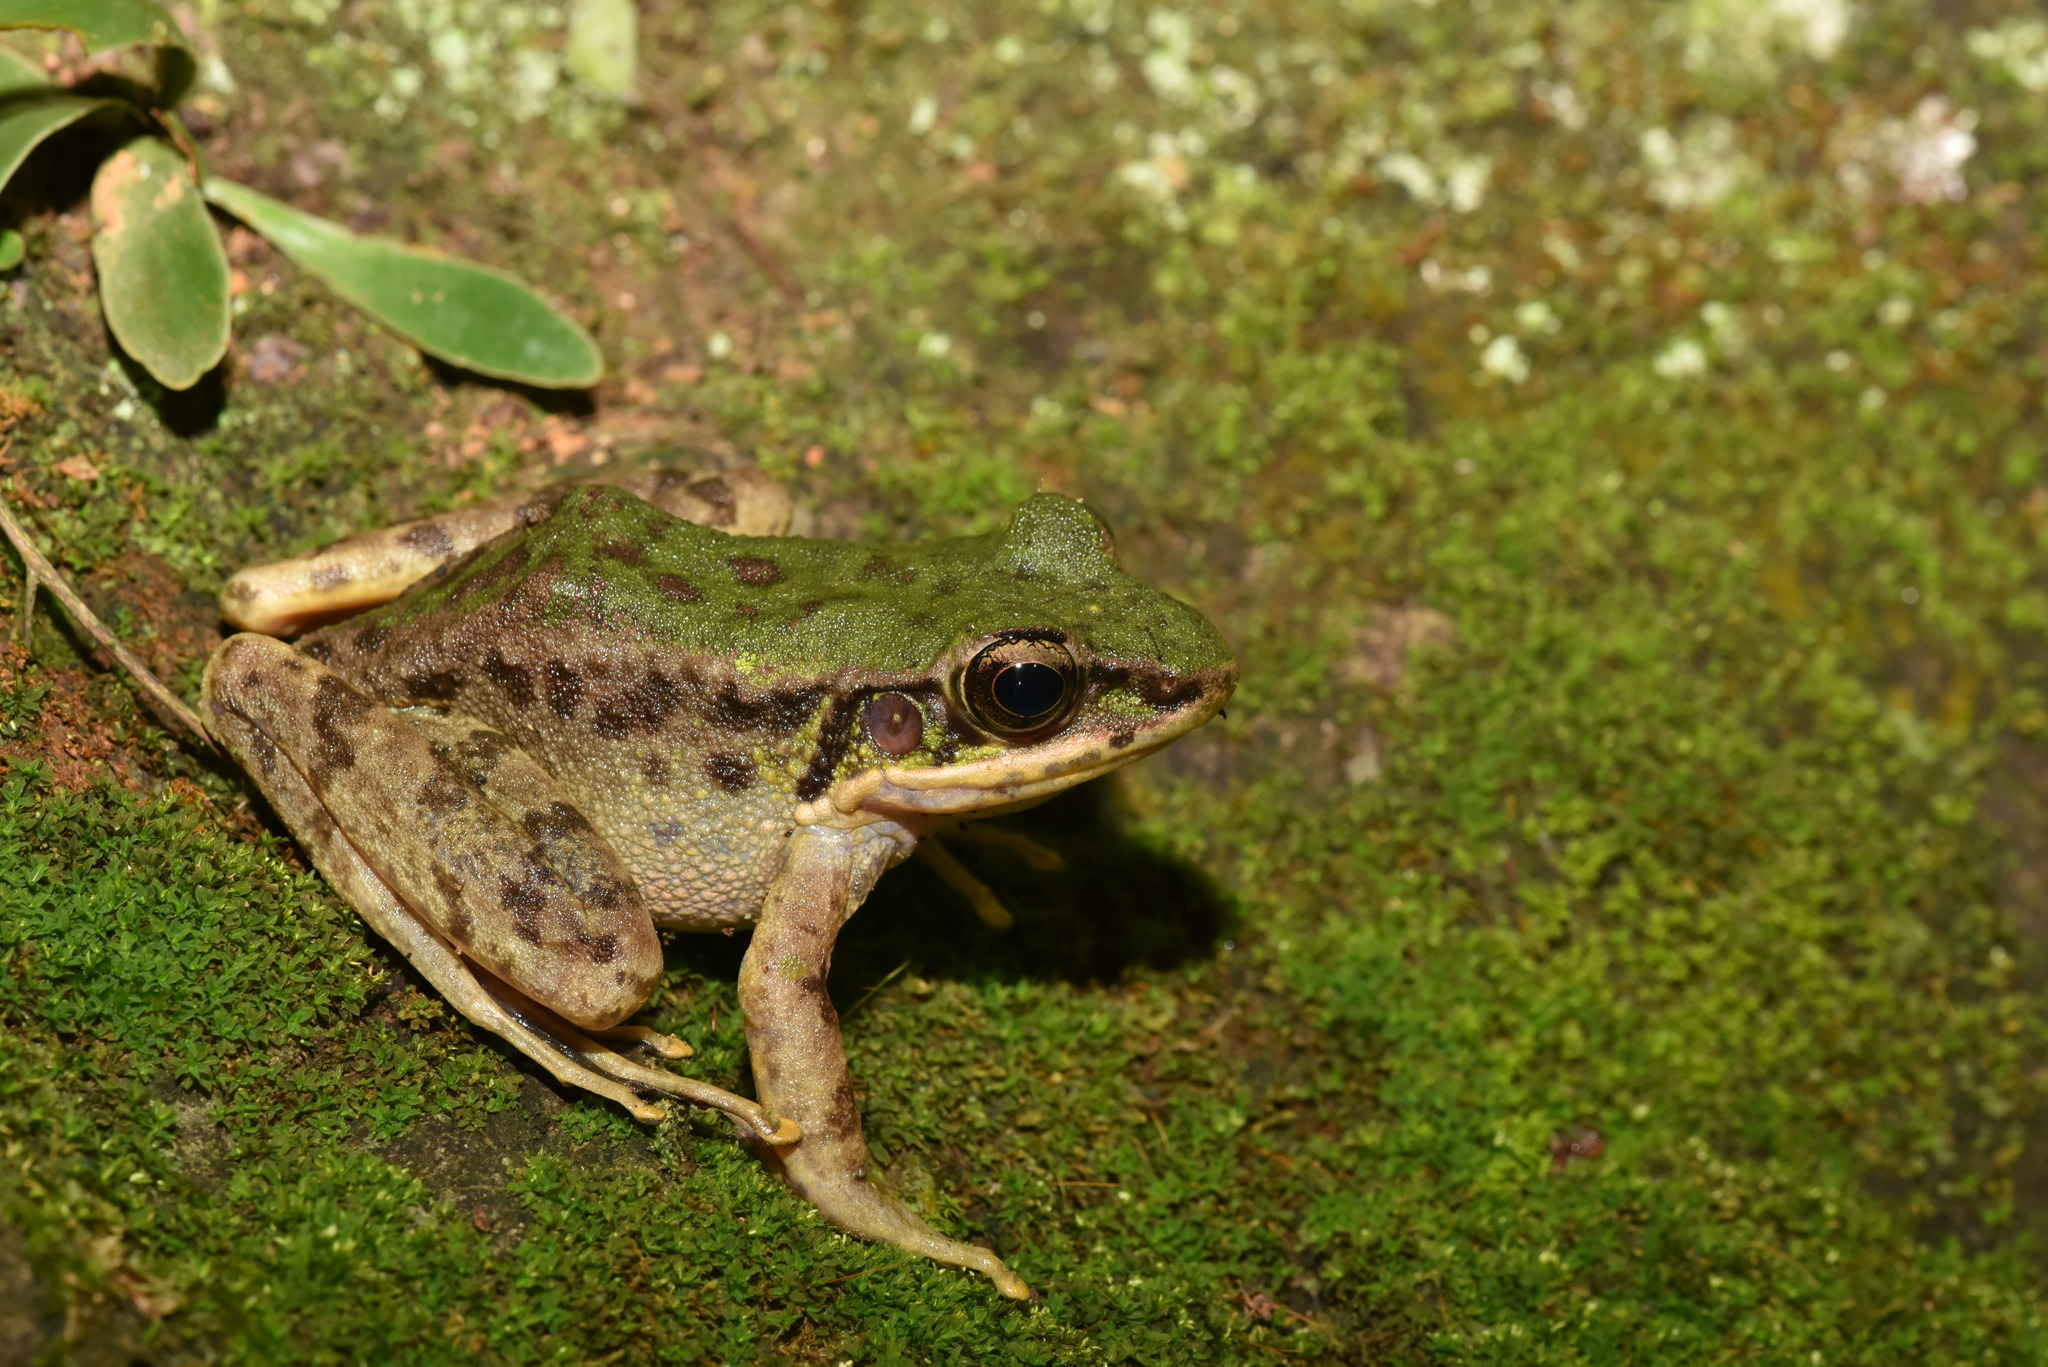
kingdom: Animalia
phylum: Chordata
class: Amphibia
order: Anura
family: Ranidae
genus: Odorrana
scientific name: Odorrana swinhoana
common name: Bangkimtsing frog
